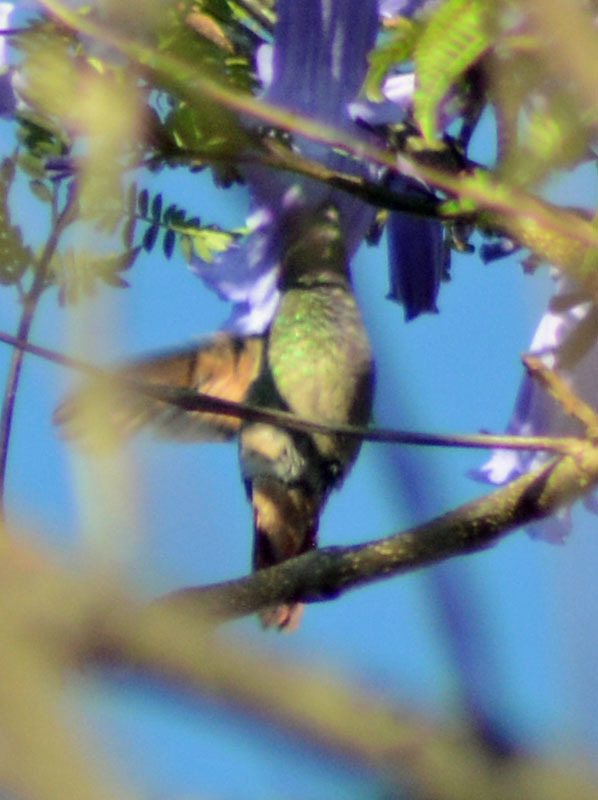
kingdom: Animalia
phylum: Chordata
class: Aves
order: Apodiformes
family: Trochilidae
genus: Saucerottia
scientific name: Saucerottia beryllina
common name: Berylline hummingbird
